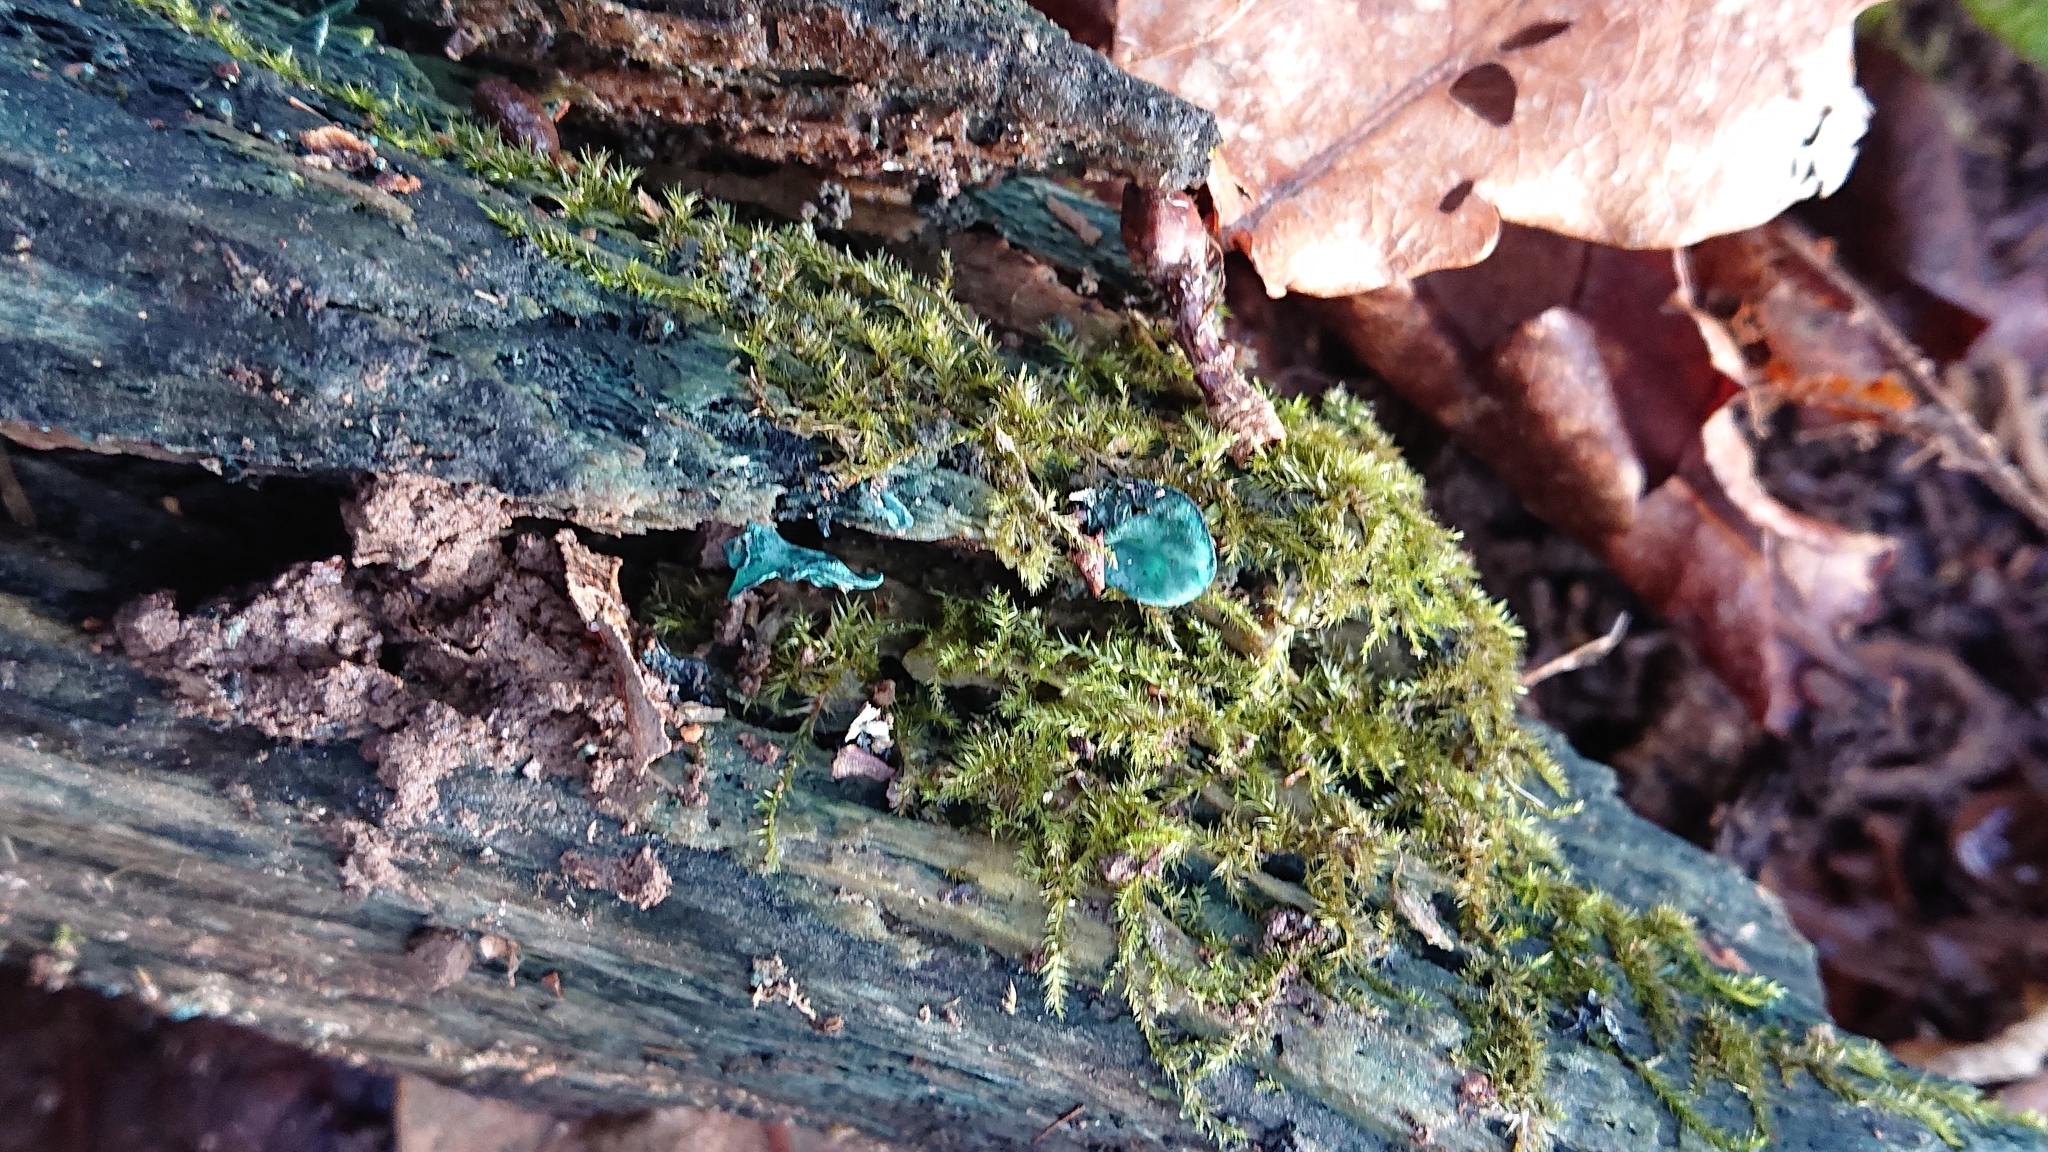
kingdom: Fungi
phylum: Ascomycota
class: Leotiomycetes
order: Helotiales
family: Chlorociboriaceae
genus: Chlorociboria
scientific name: Chlorociboria aeruginascens
